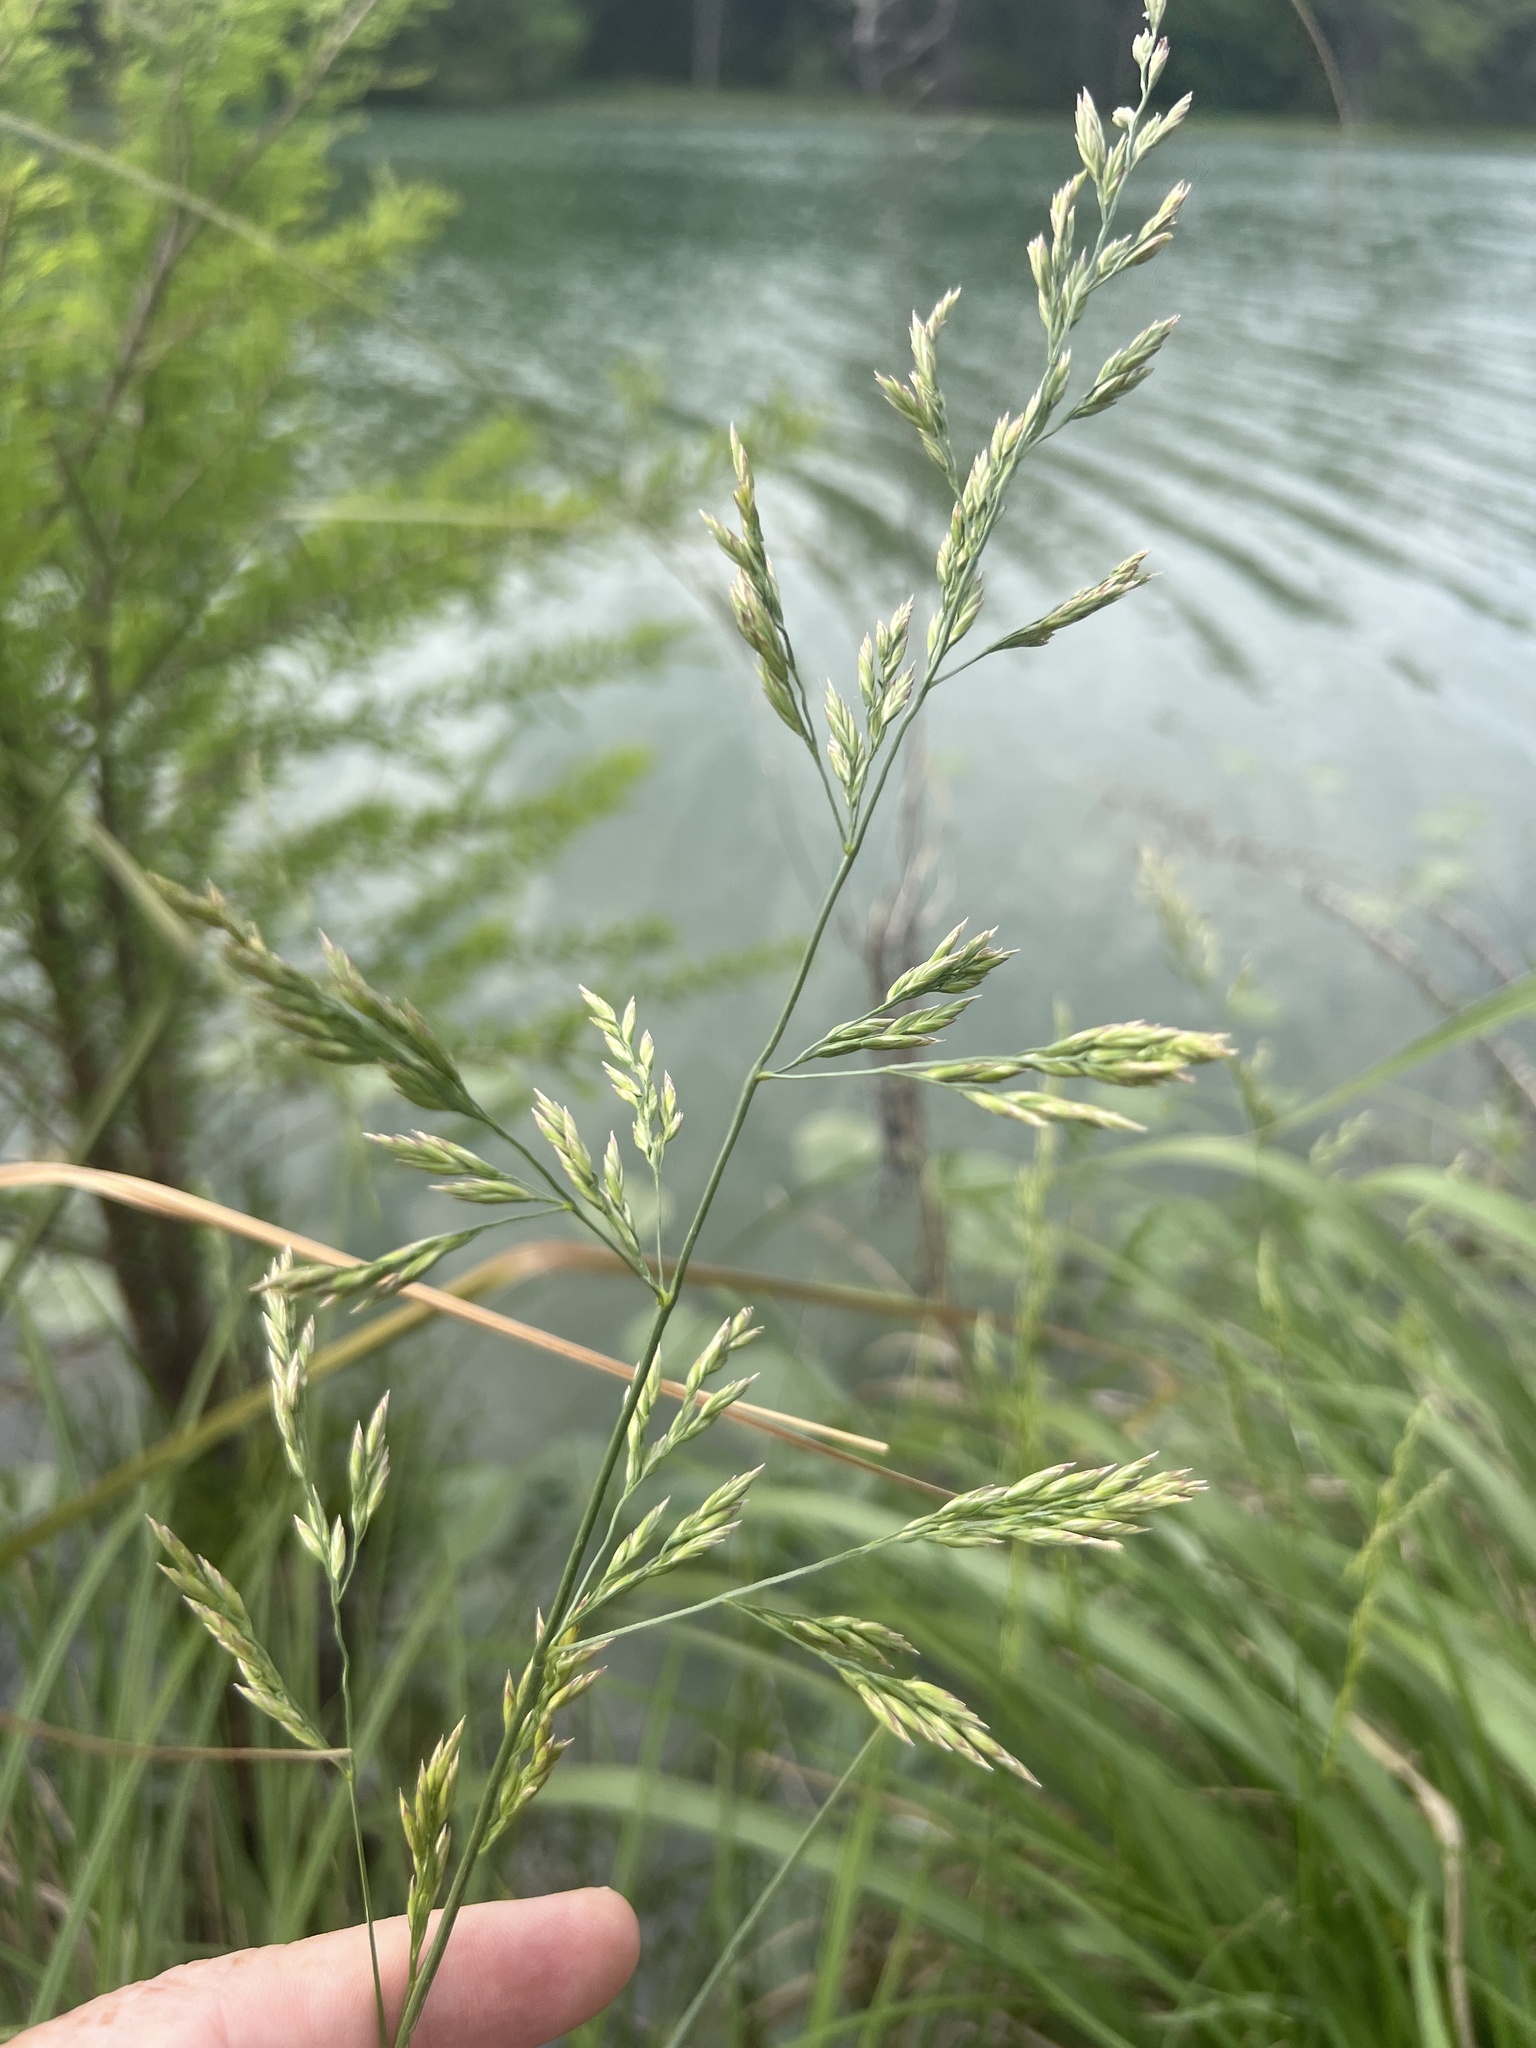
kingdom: Plantae
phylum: Tracheophyta
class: Liliopsida
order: Poales
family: Poaceae
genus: Lolium
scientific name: Lolium arundinaceum
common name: Reed fescue
